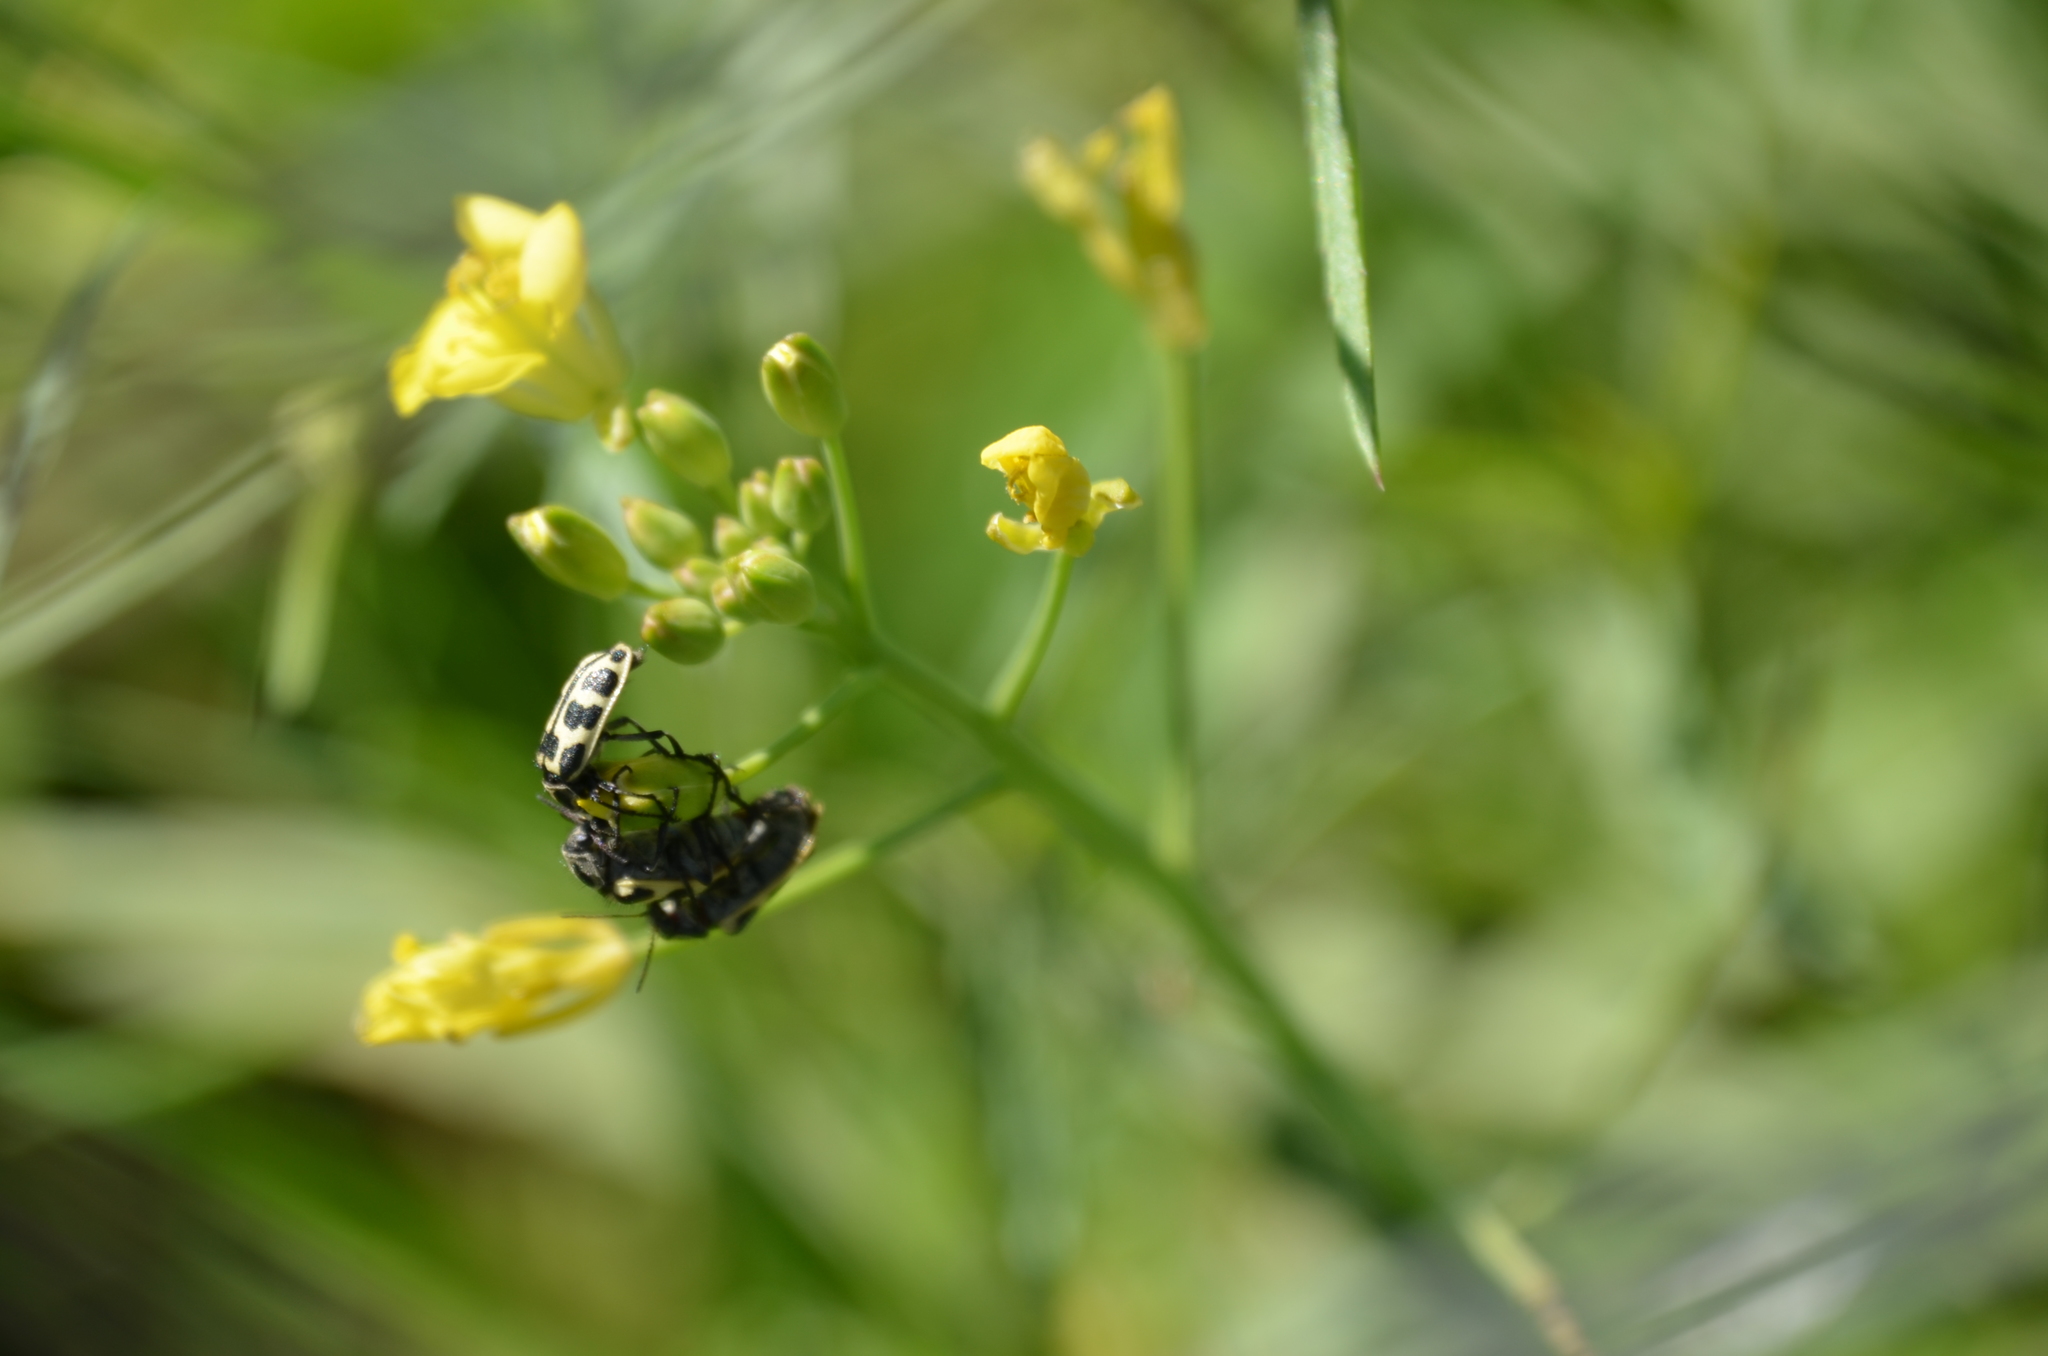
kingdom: Animalia
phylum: Arthropoda
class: Insecta
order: Coleoptera
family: Melyridae
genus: Astylus
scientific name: Astylus atromaculatus
